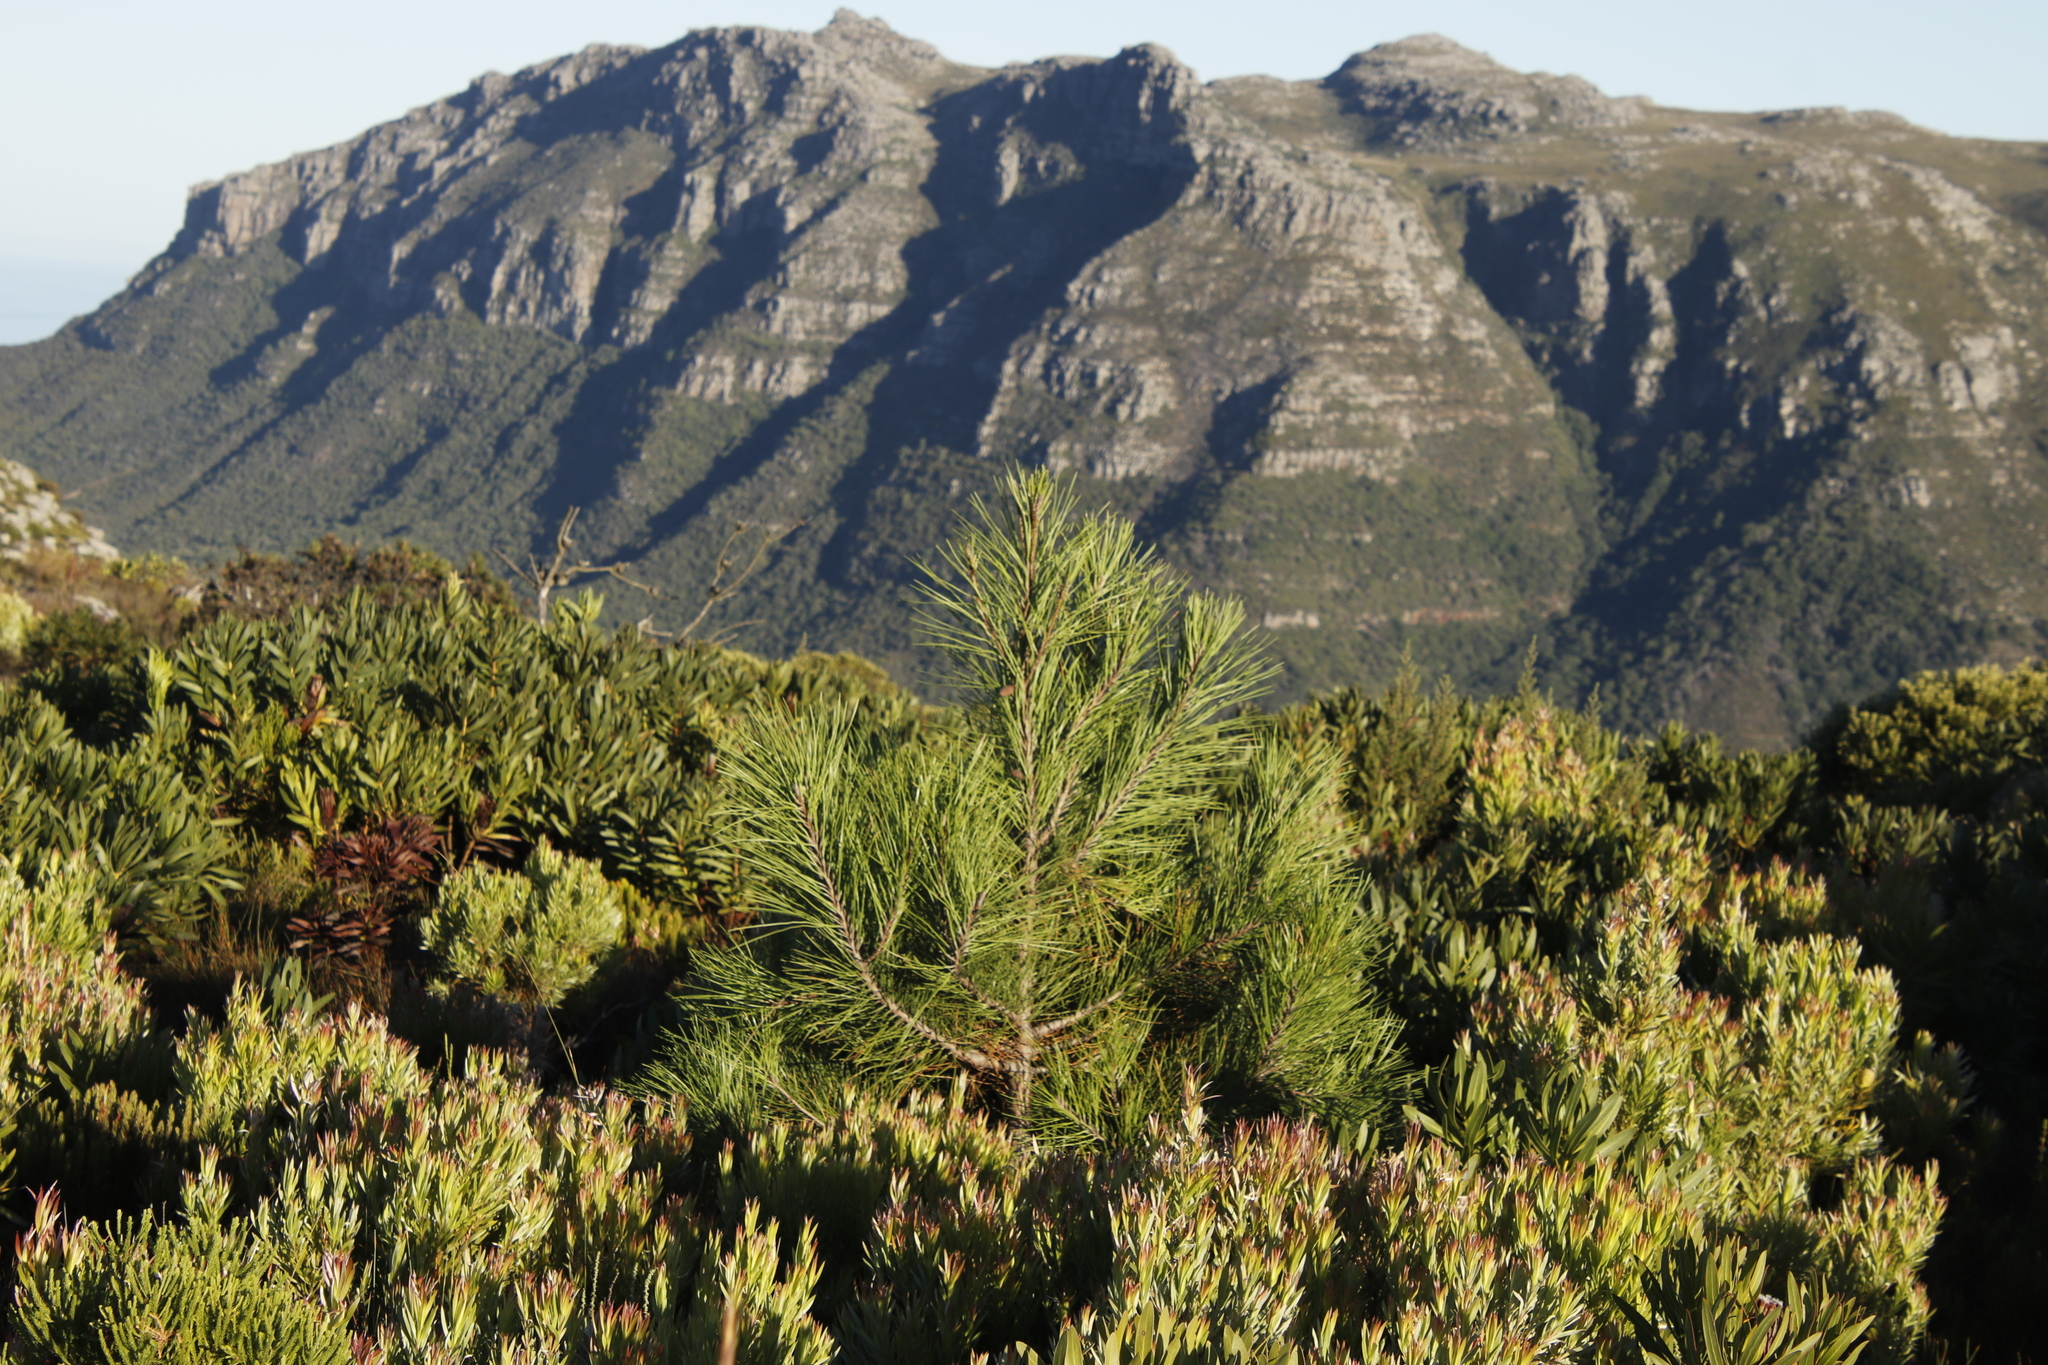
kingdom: Plantae
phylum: Tracheophyta
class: Pinopsida
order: Pinales
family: Pinaceae
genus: Pinus
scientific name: Pinus pinaster
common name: Maritime pine
